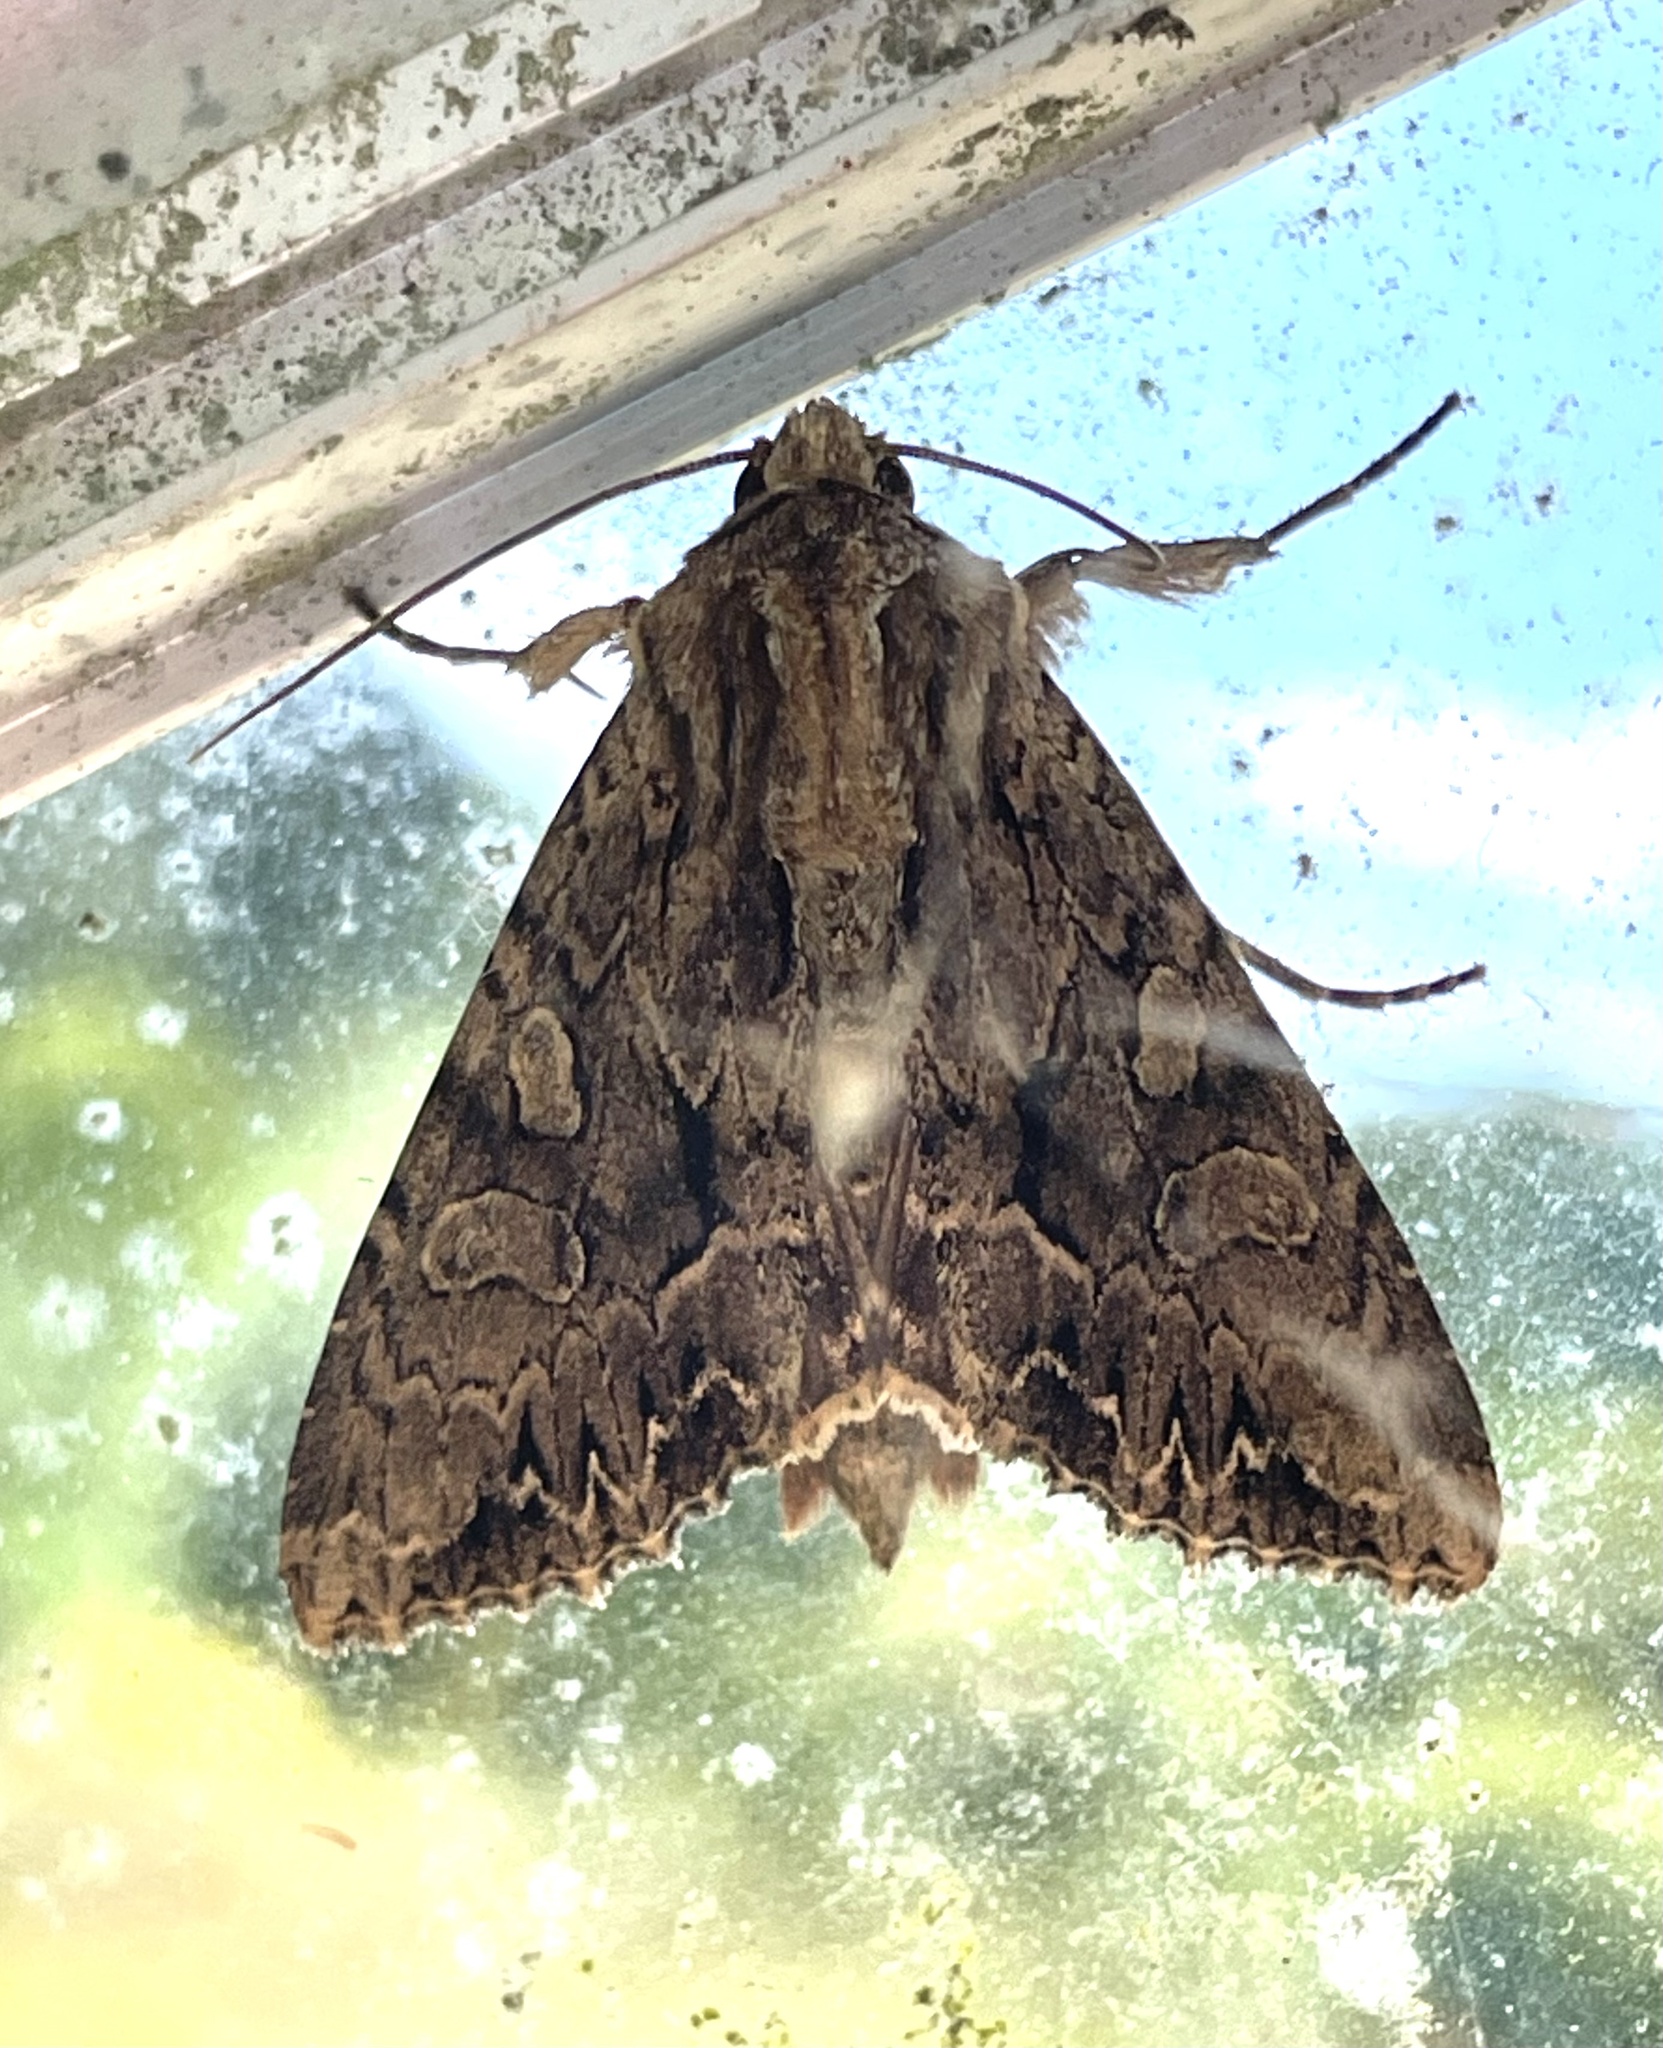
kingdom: Animalia
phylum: Arthropoda
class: Insecta
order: Lepidoptera
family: Noctuidae
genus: Apamea
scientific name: Apamea monoglypha
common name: Dark arches
